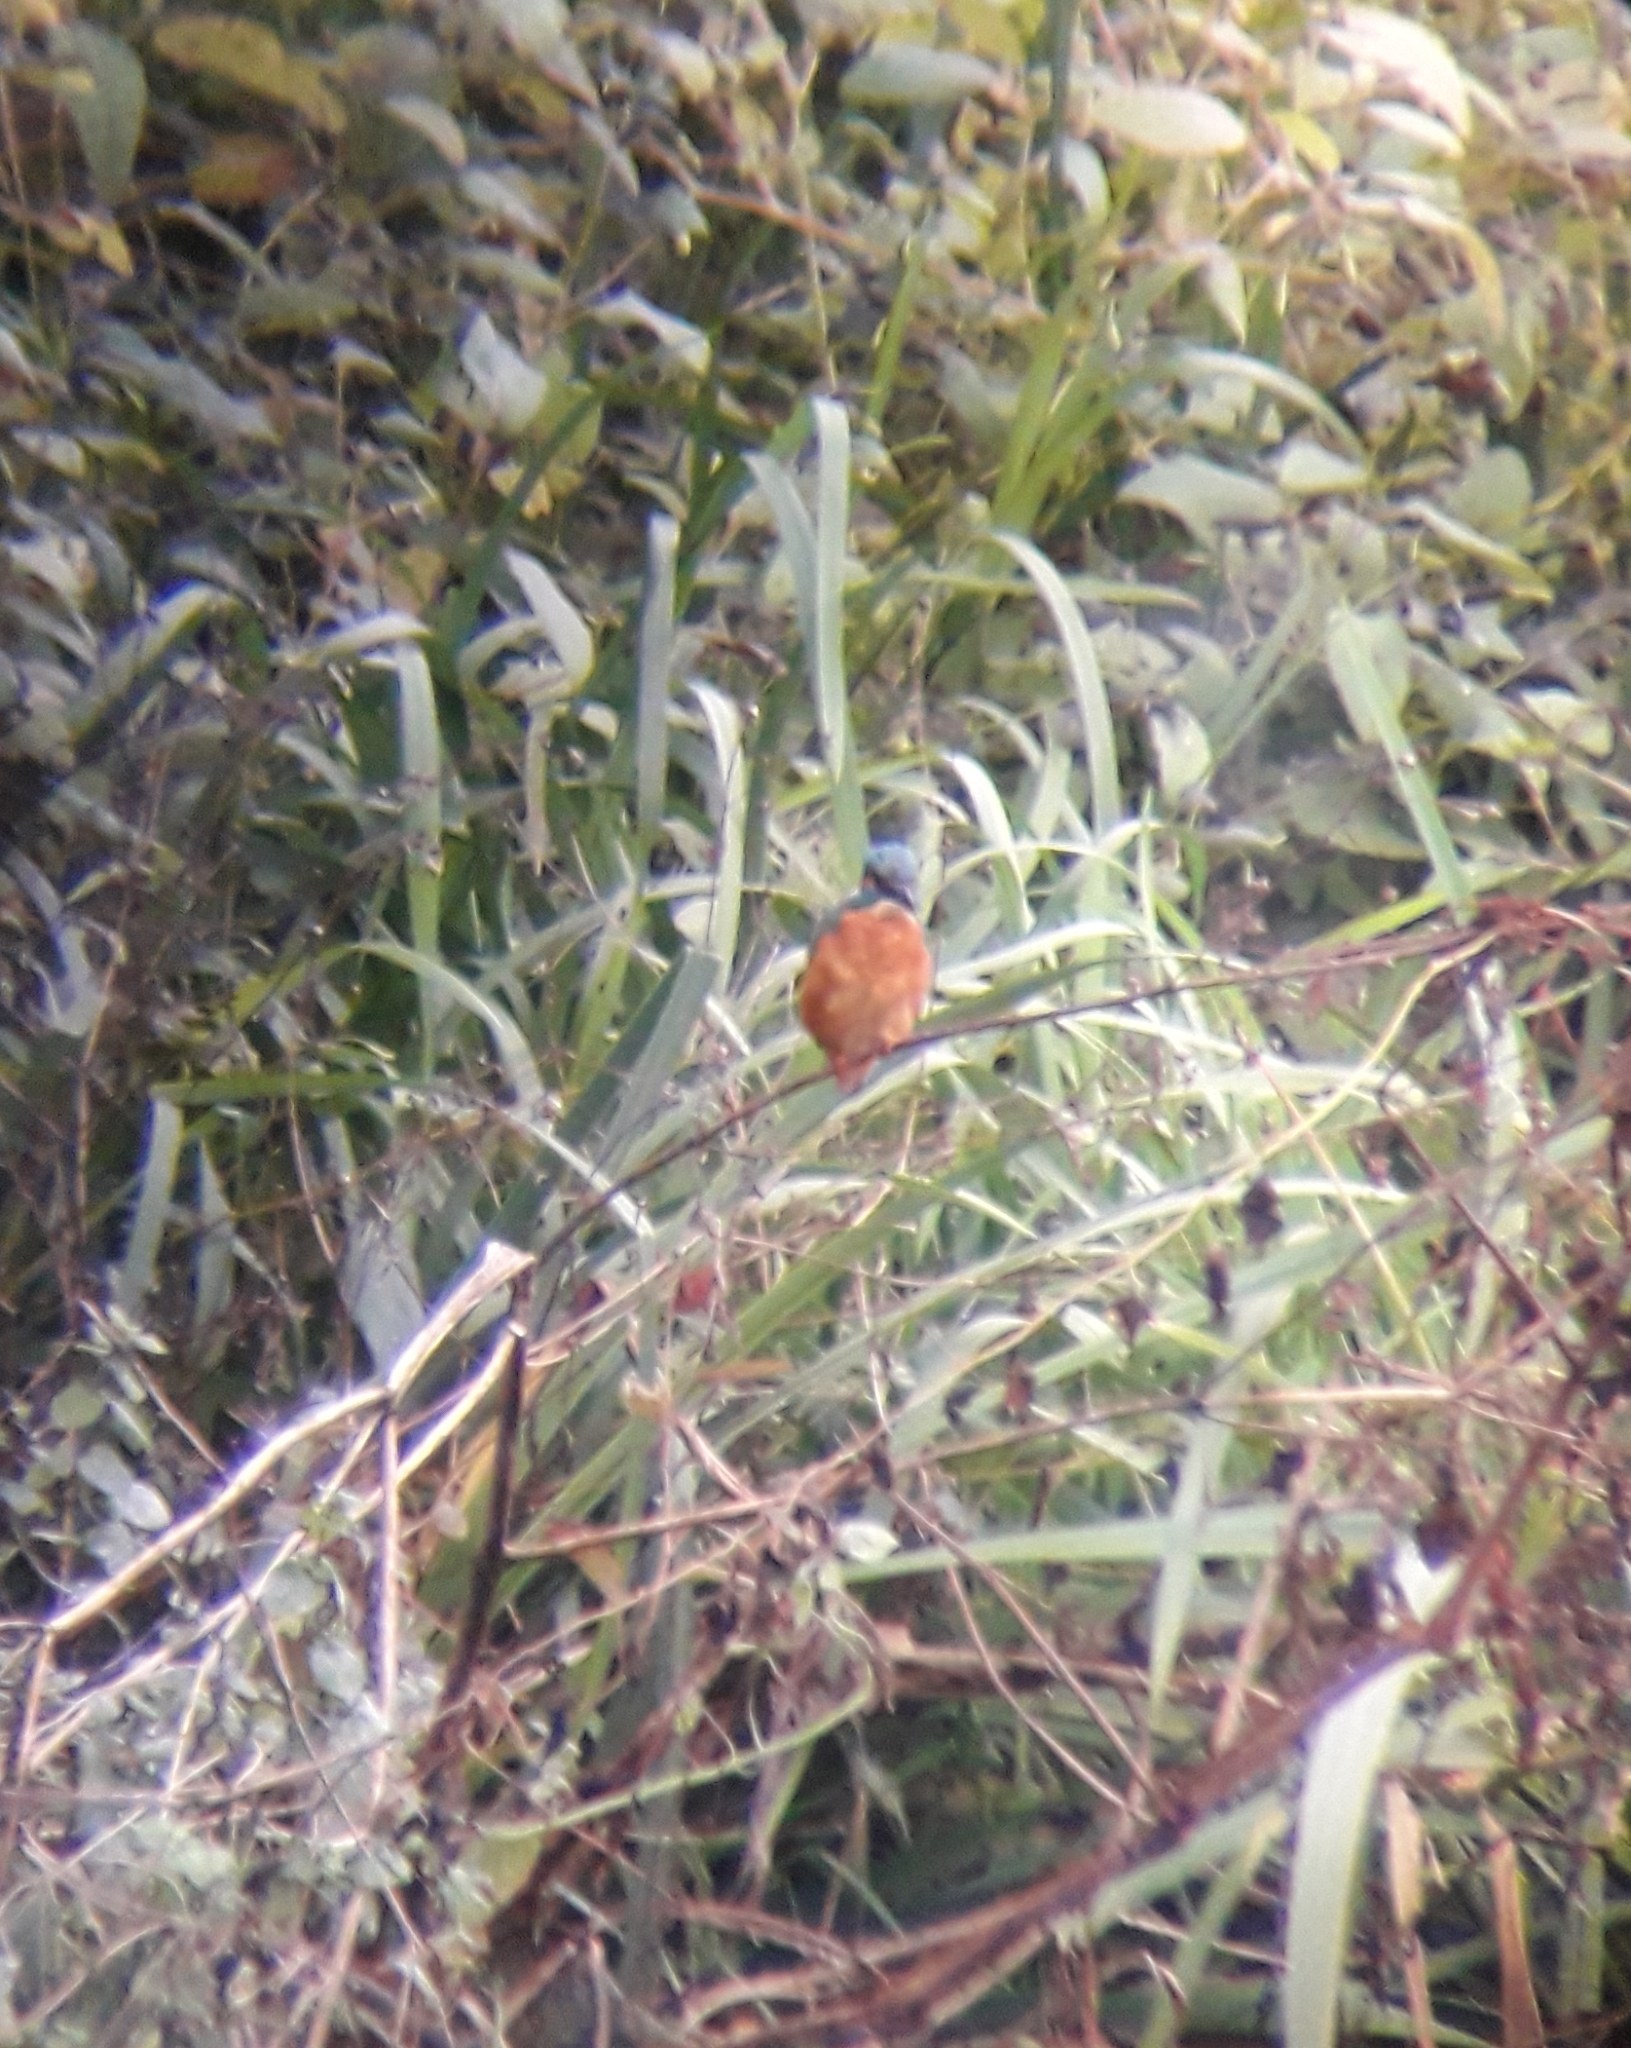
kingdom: Animalia
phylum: Chordata
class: Aves
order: Coraciiformes
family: Alcedinidae
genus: Alcedo
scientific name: Alcedo atthis
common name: Common kingfisher
